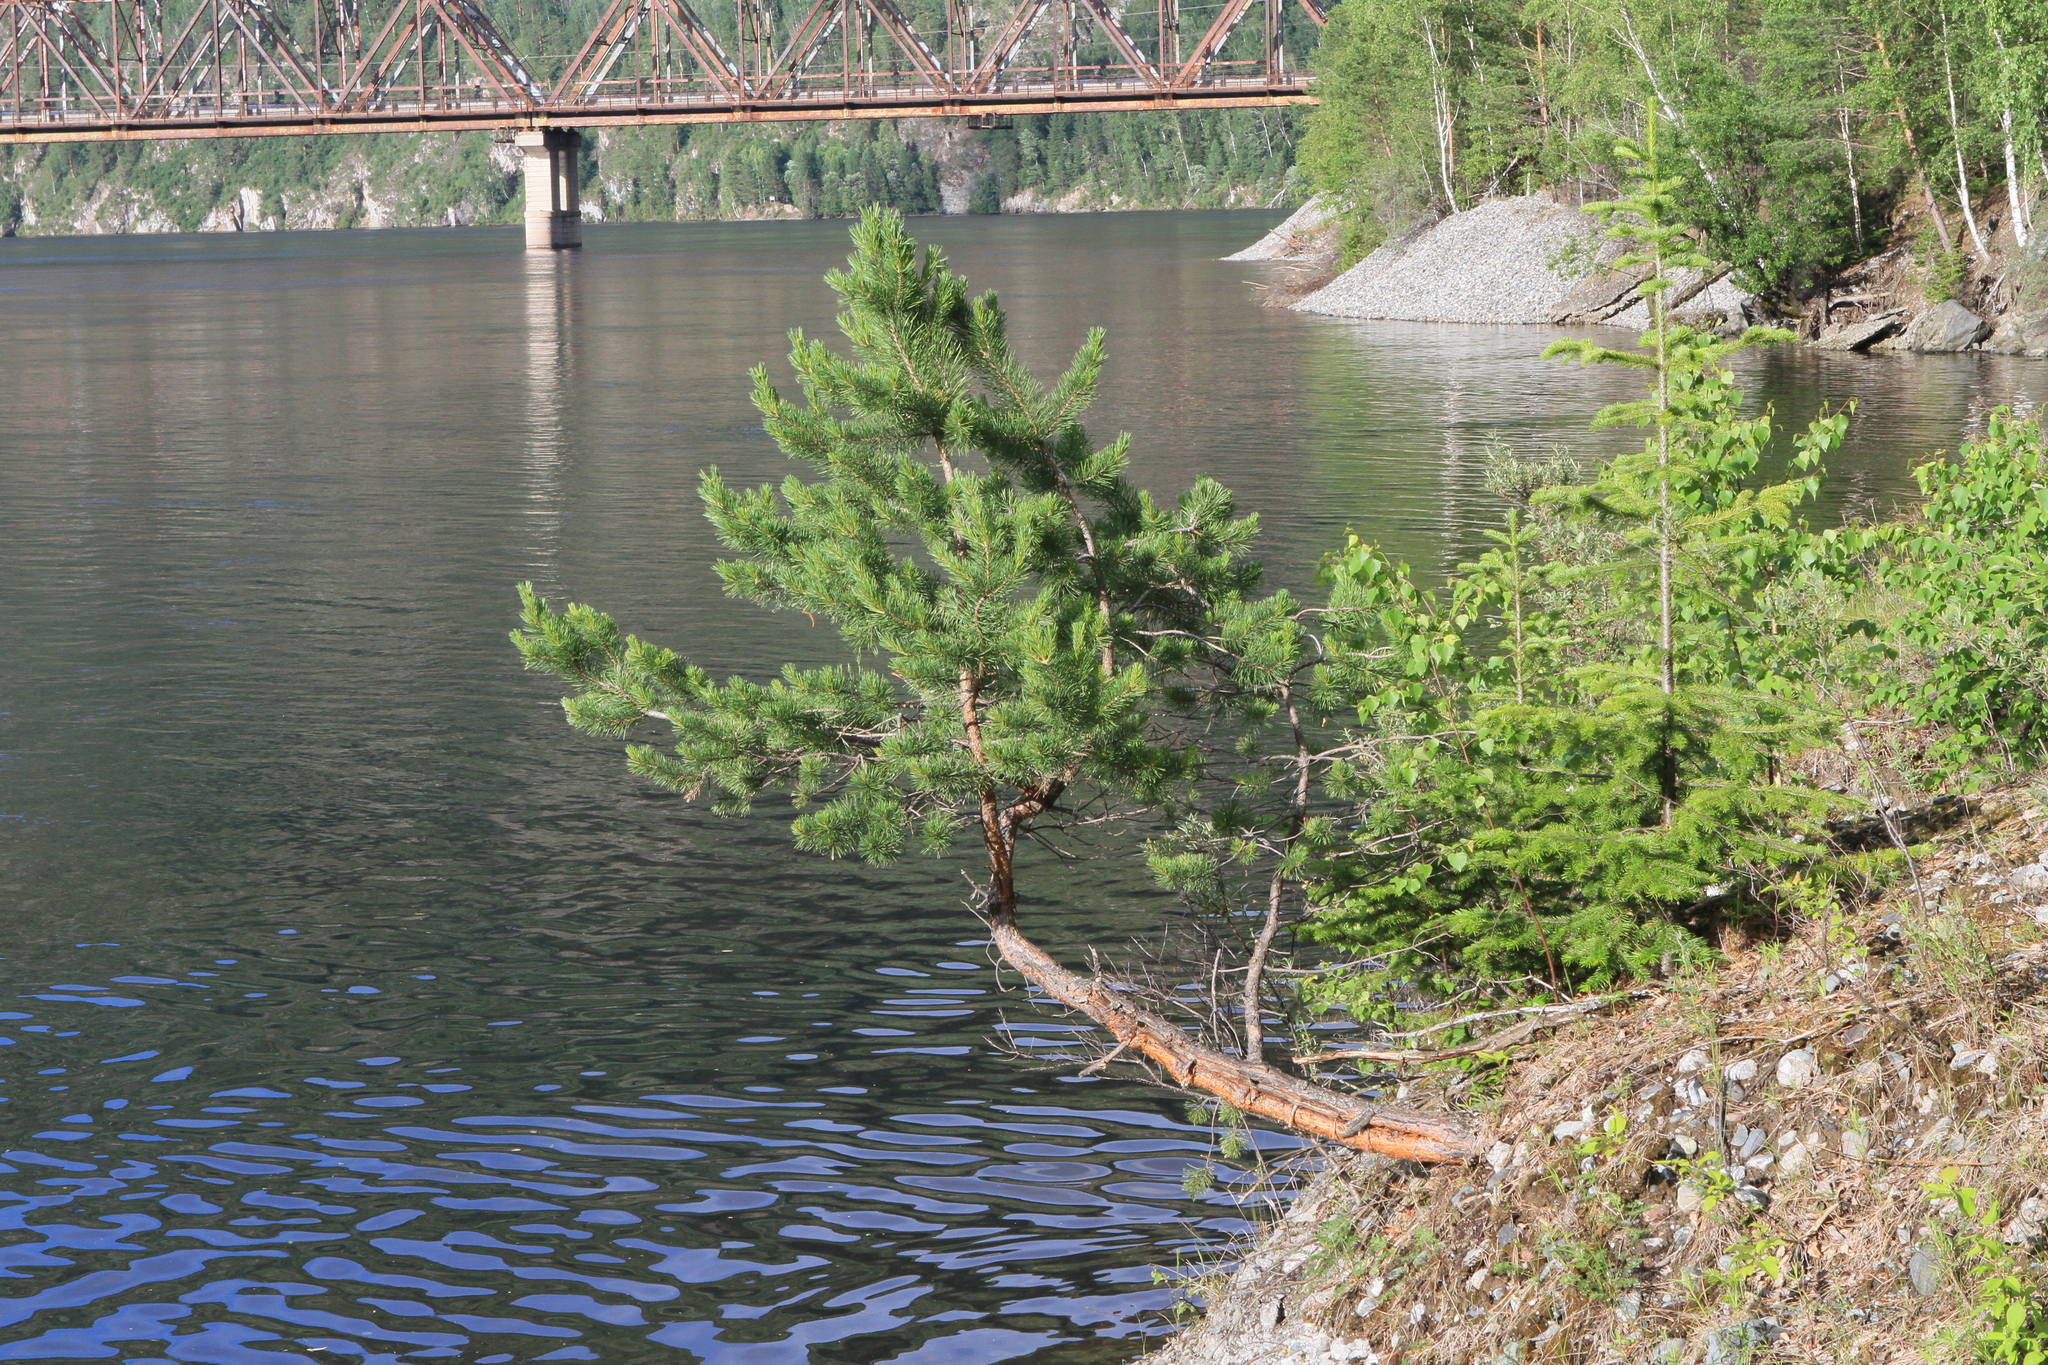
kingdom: Plantae
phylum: Tracheophyta
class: Pinopsida
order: Pinales
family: Pinaceae
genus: Pinus
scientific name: Pinus sylvestris
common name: Scots pine
